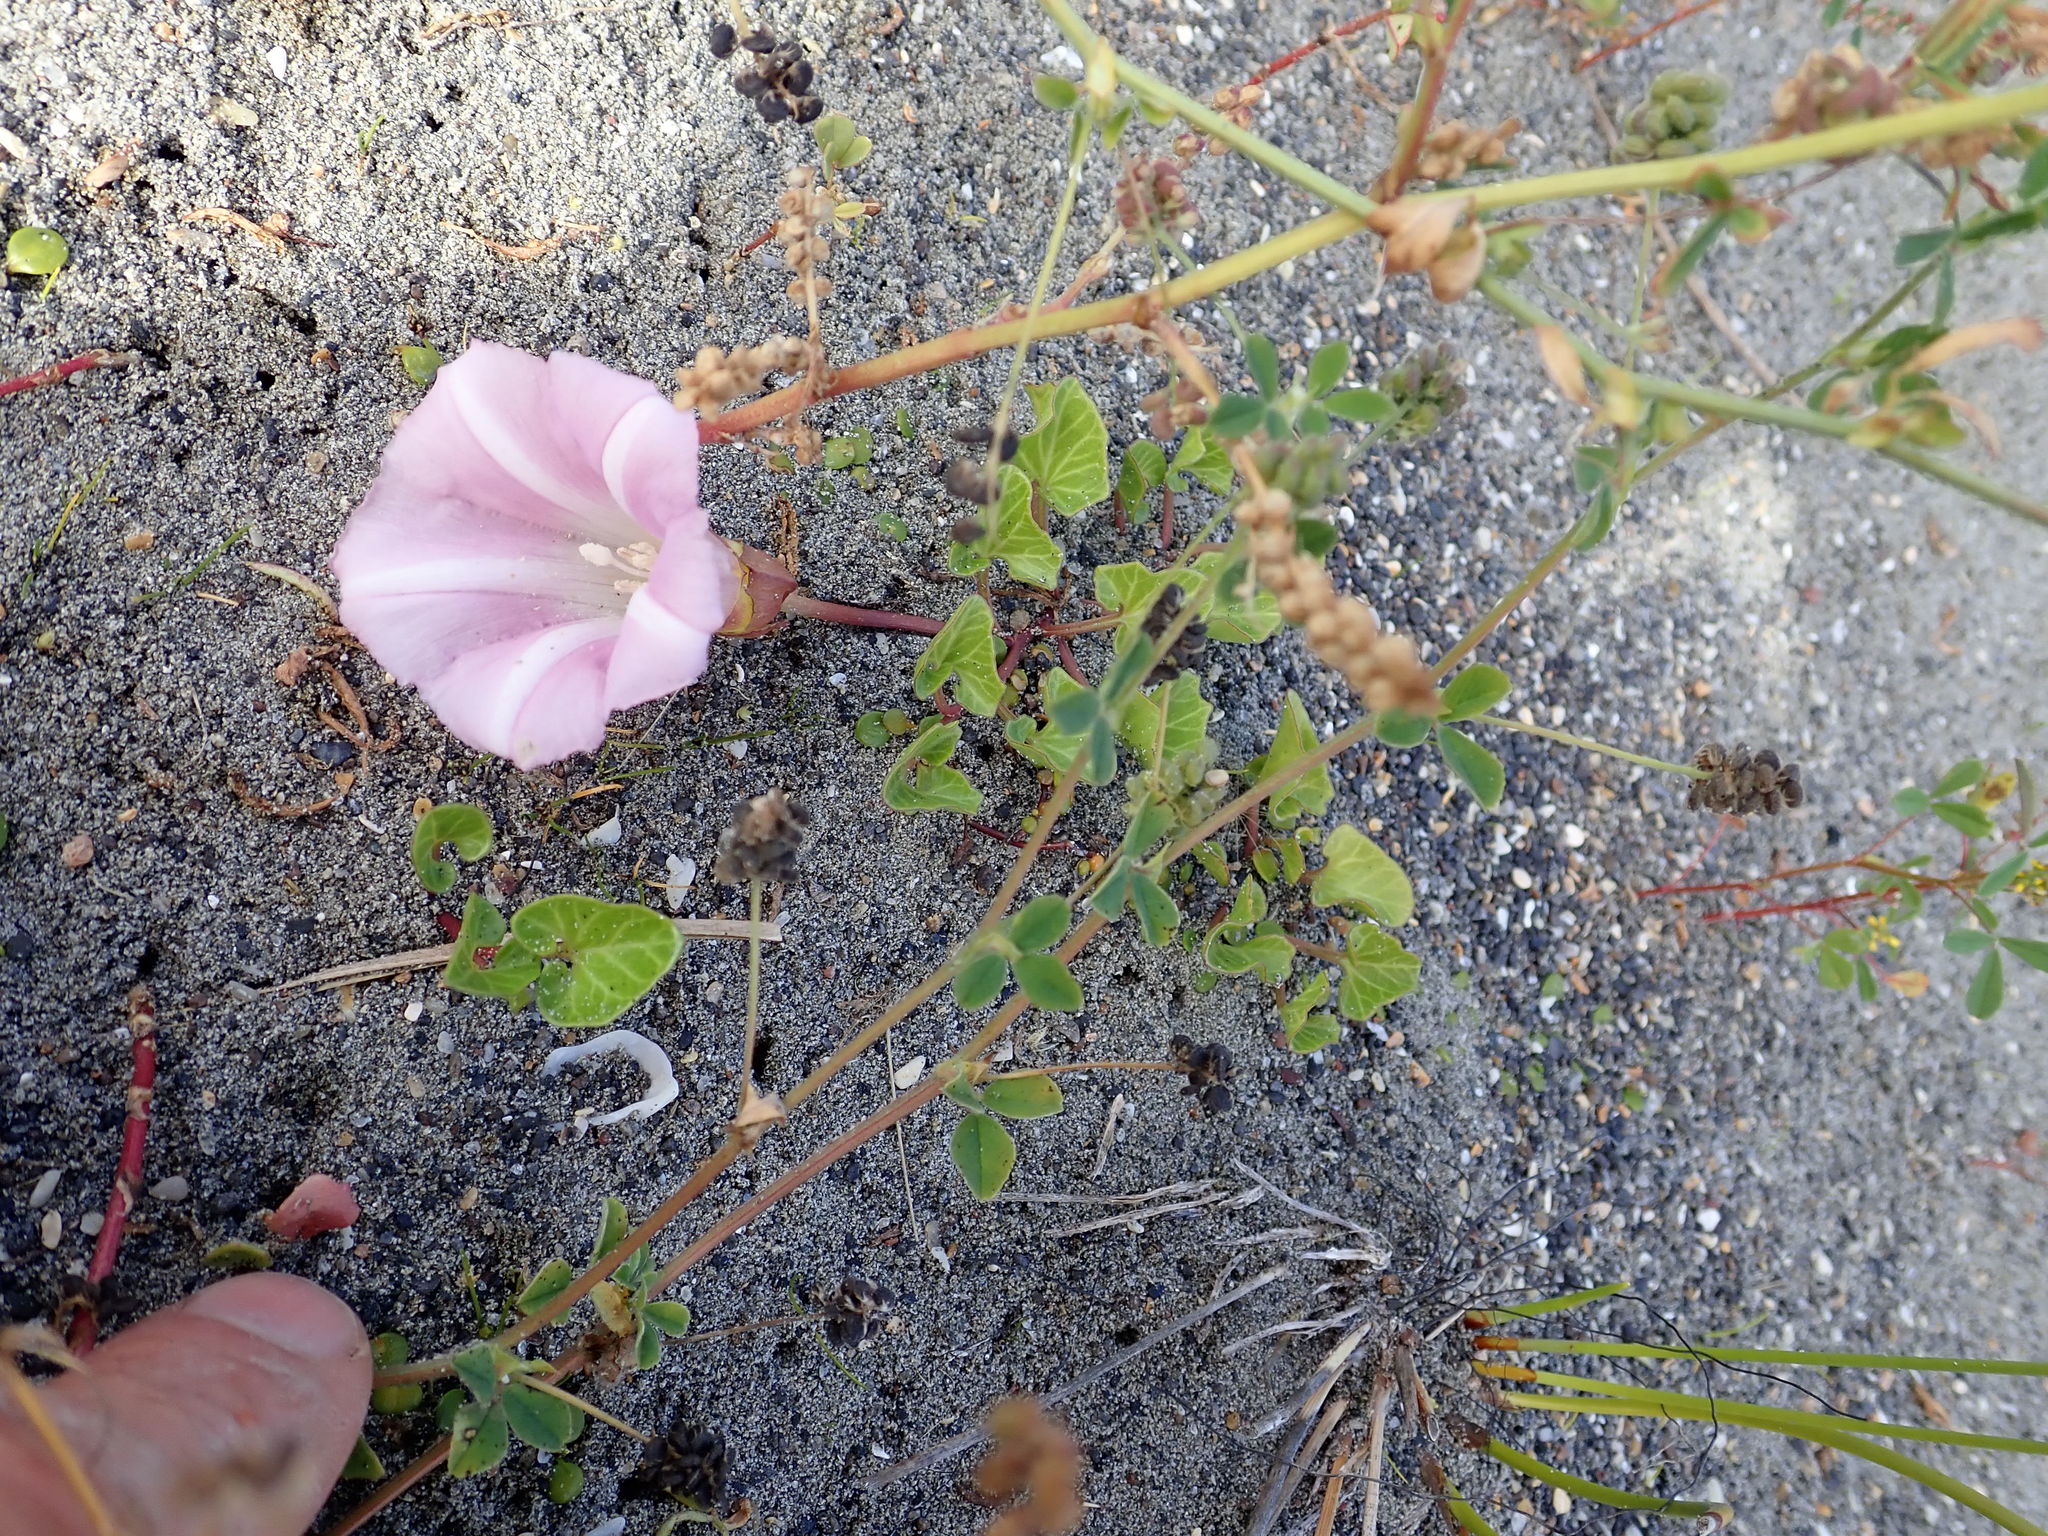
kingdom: Plantae
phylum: Tracheophyta
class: Magnoliopsida
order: Solanales
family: Convolvulaceae
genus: Calystegia
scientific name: Calystegia soldanella
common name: Sea bindweed
